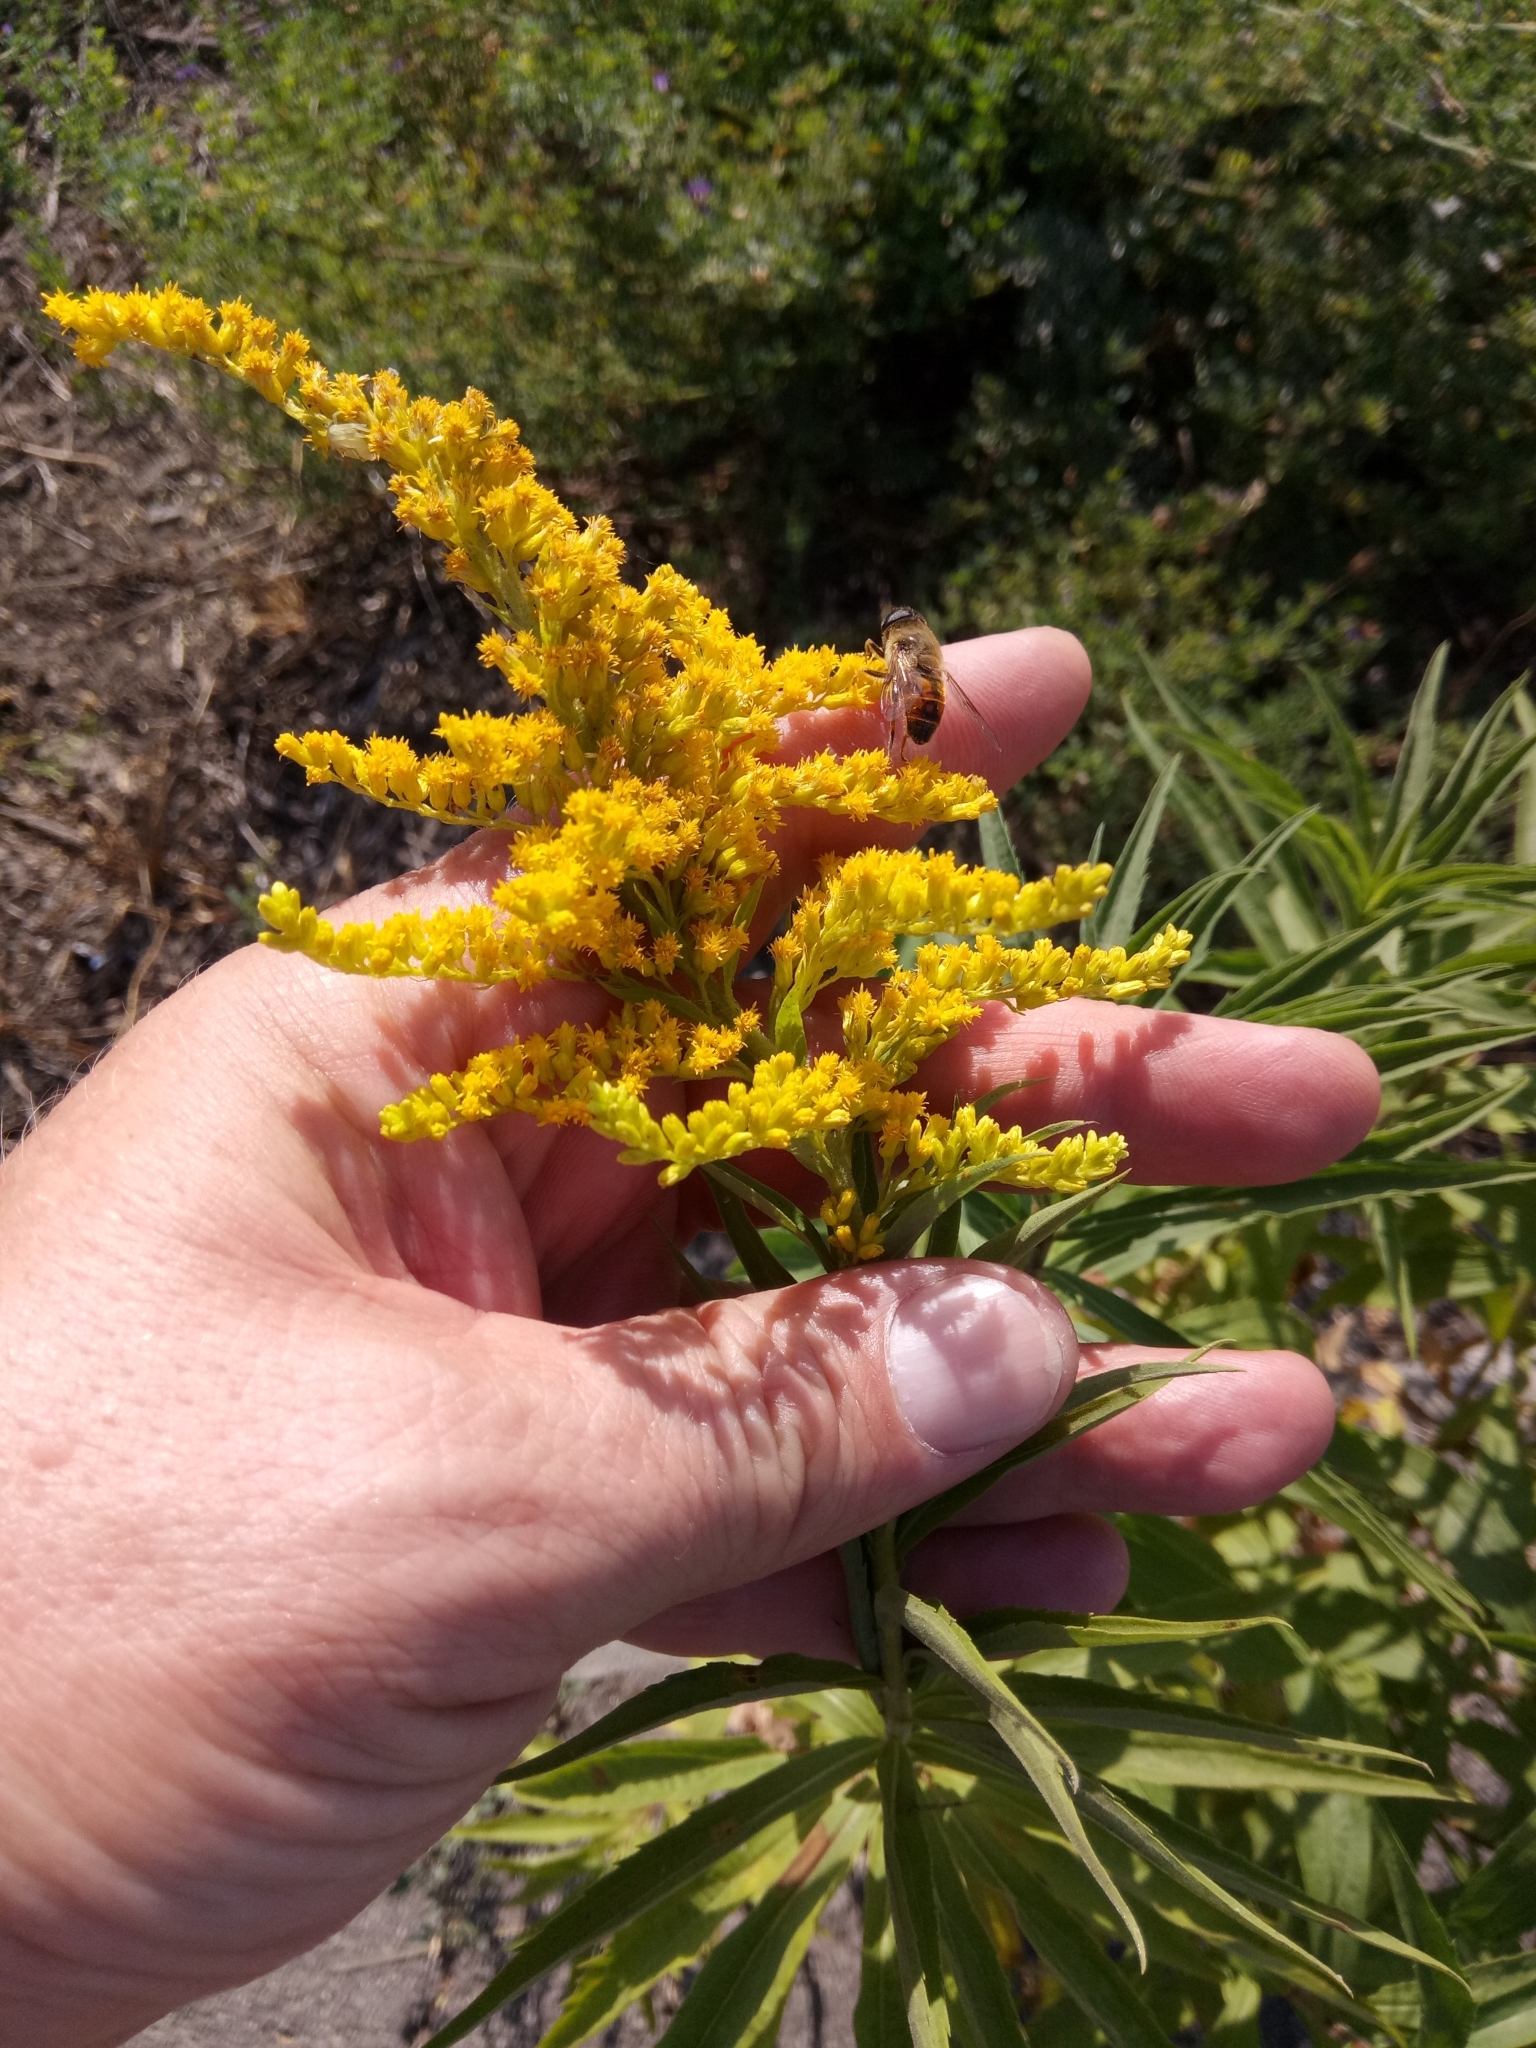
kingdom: Plantae
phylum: Tracheophyta
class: Magnoliopsida
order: Asterales
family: Asteraceae
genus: Solidago
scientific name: Solidago canadensis
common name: Canada goldenrod
